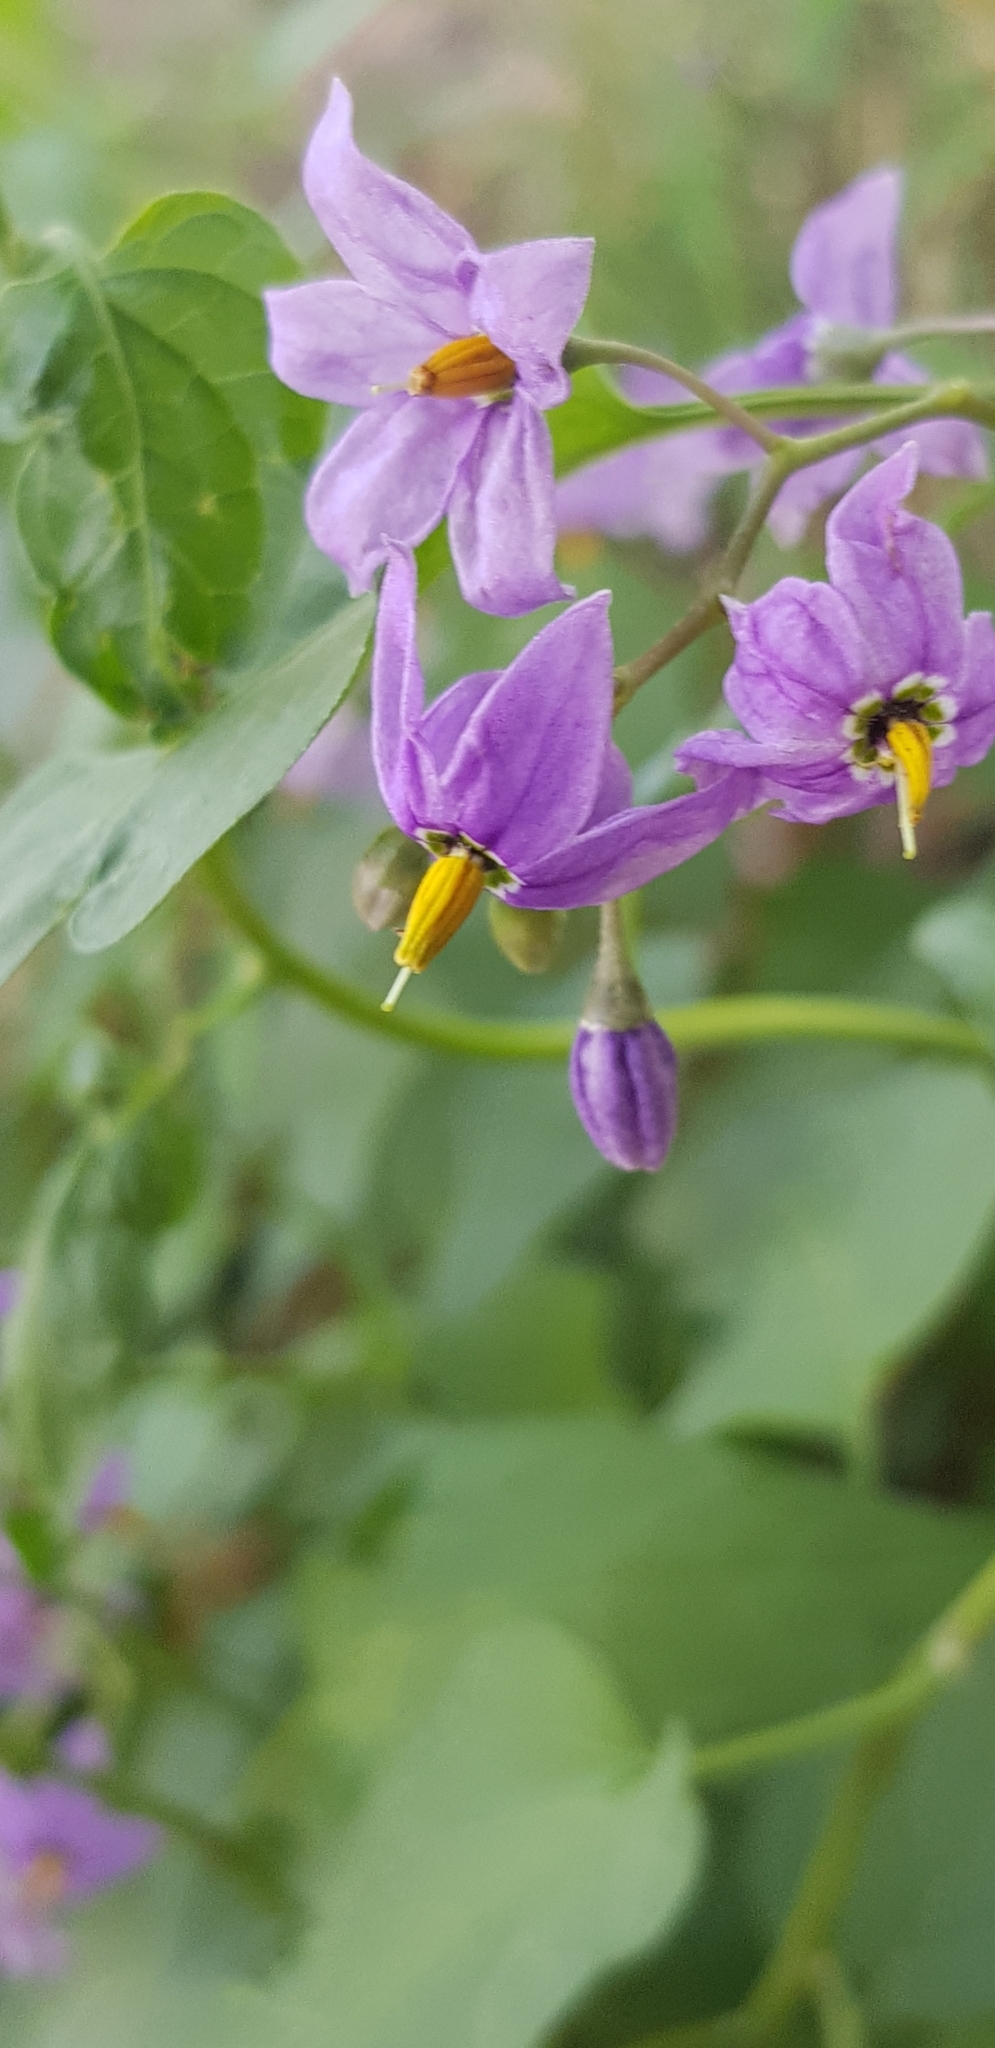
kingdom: Plantae
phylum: Tracheophyta
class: Magnoliopsida
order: Solanales
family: Solanaceae
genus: Solanum
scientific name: Solanum dulcamara
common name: Climbing nightshade
